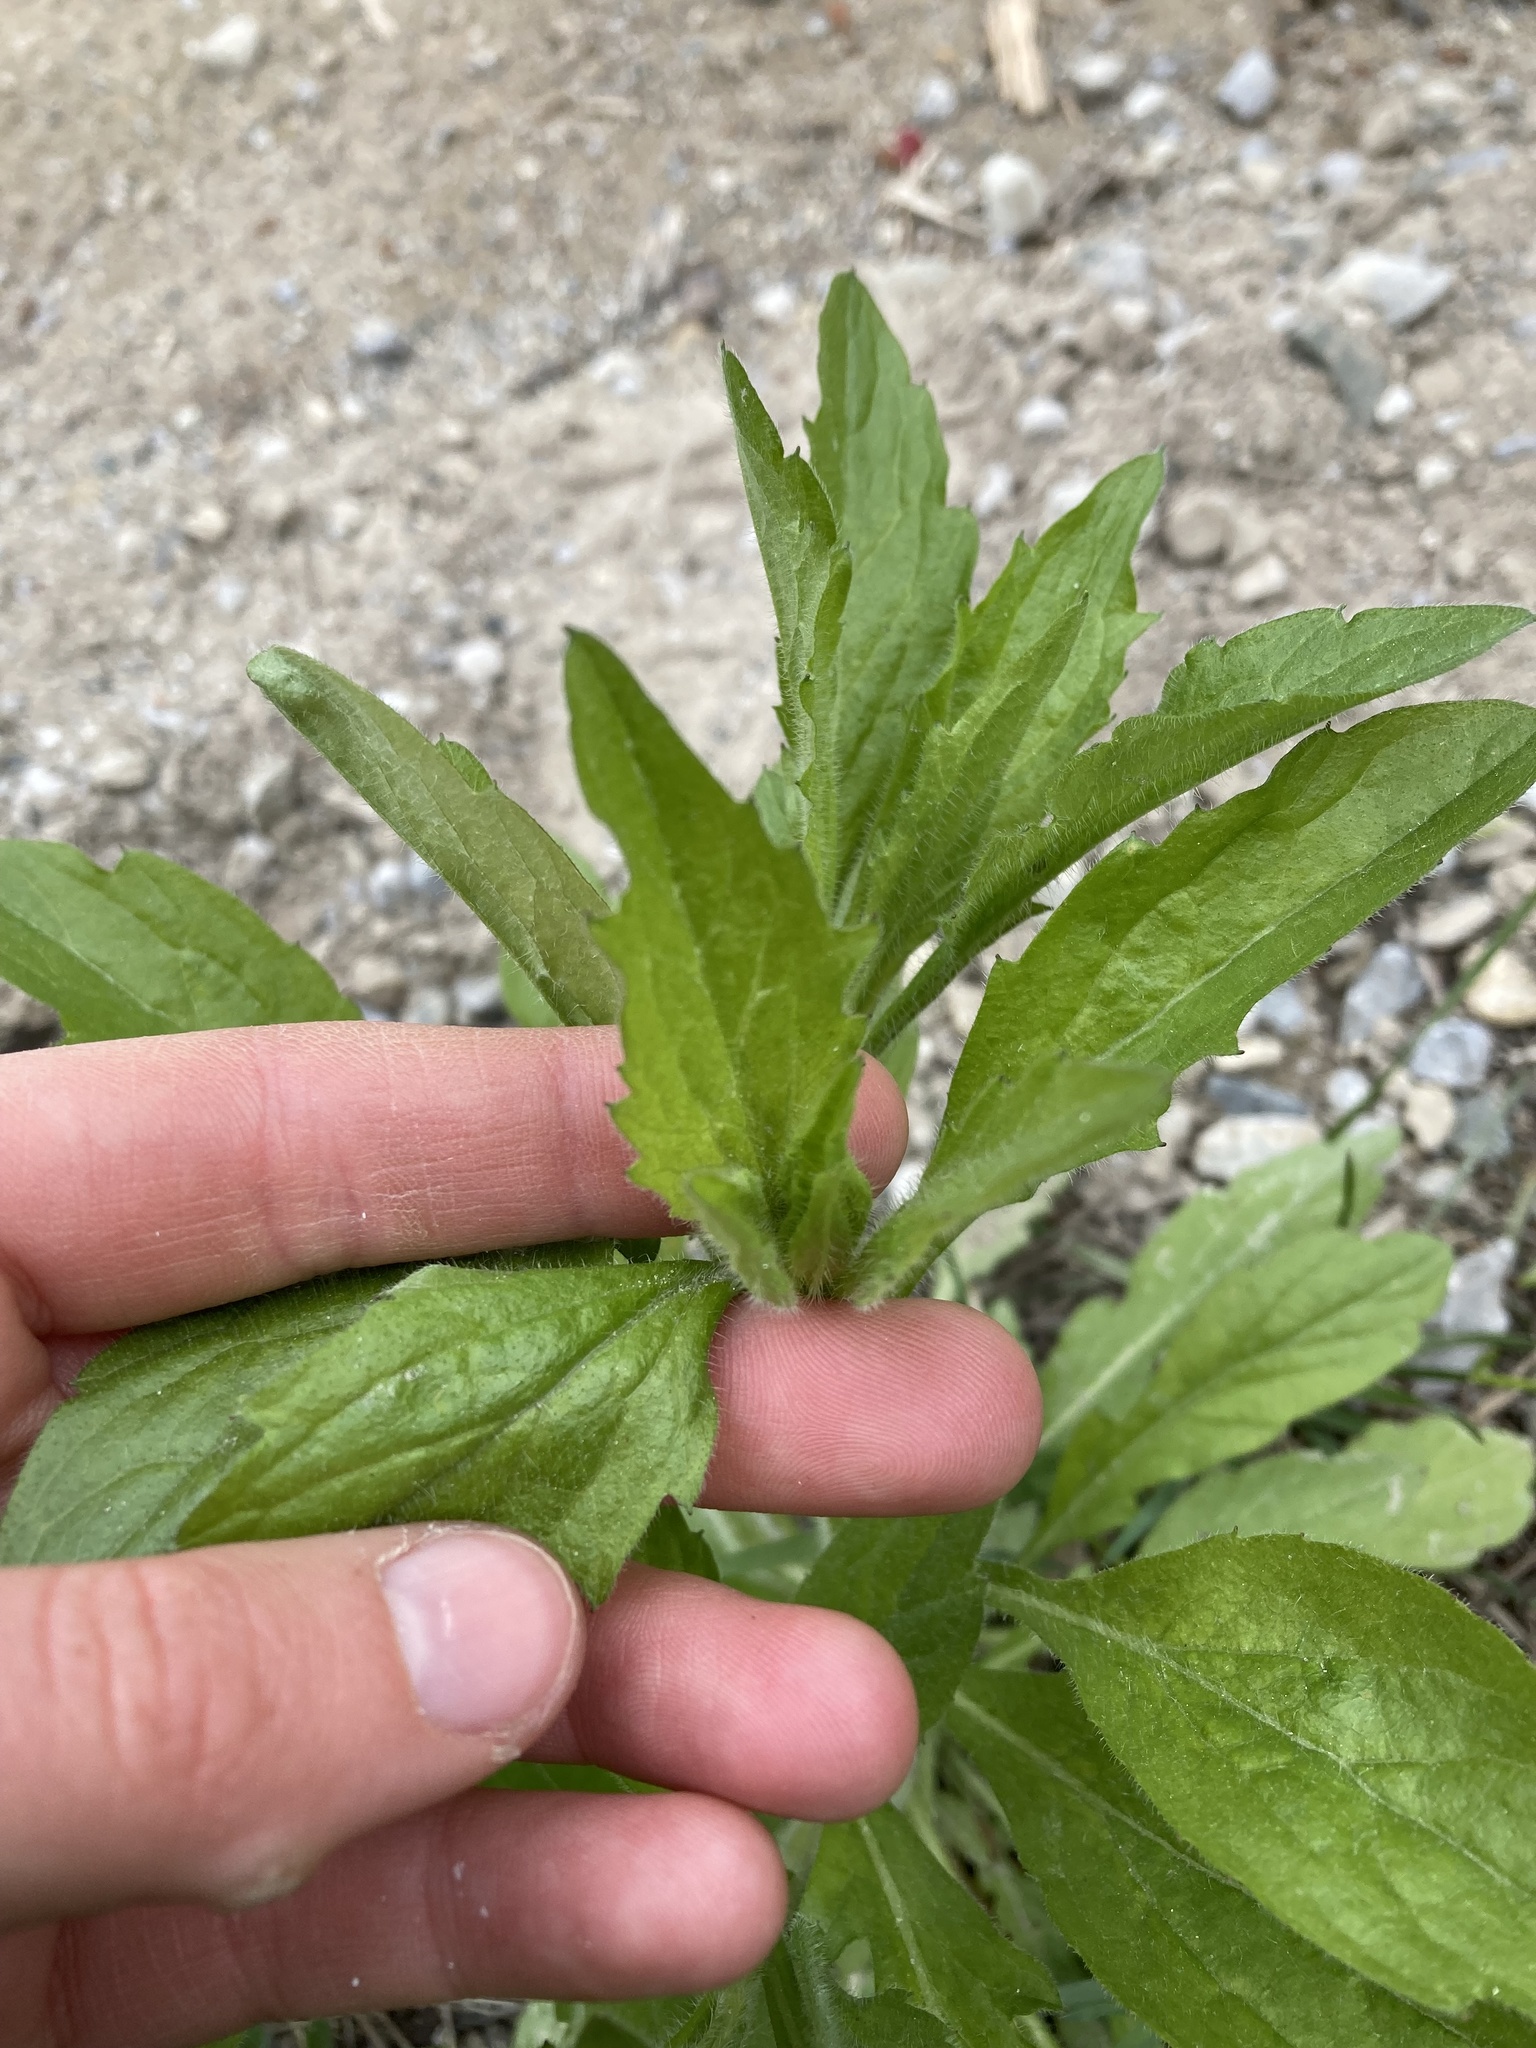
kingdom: Plantae
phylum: Tracheophyta
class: Magnoliopsida
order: Asterales
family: Asteraceae
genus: Erigeron
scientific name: Erigeron annuus
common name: Tall fleabane
